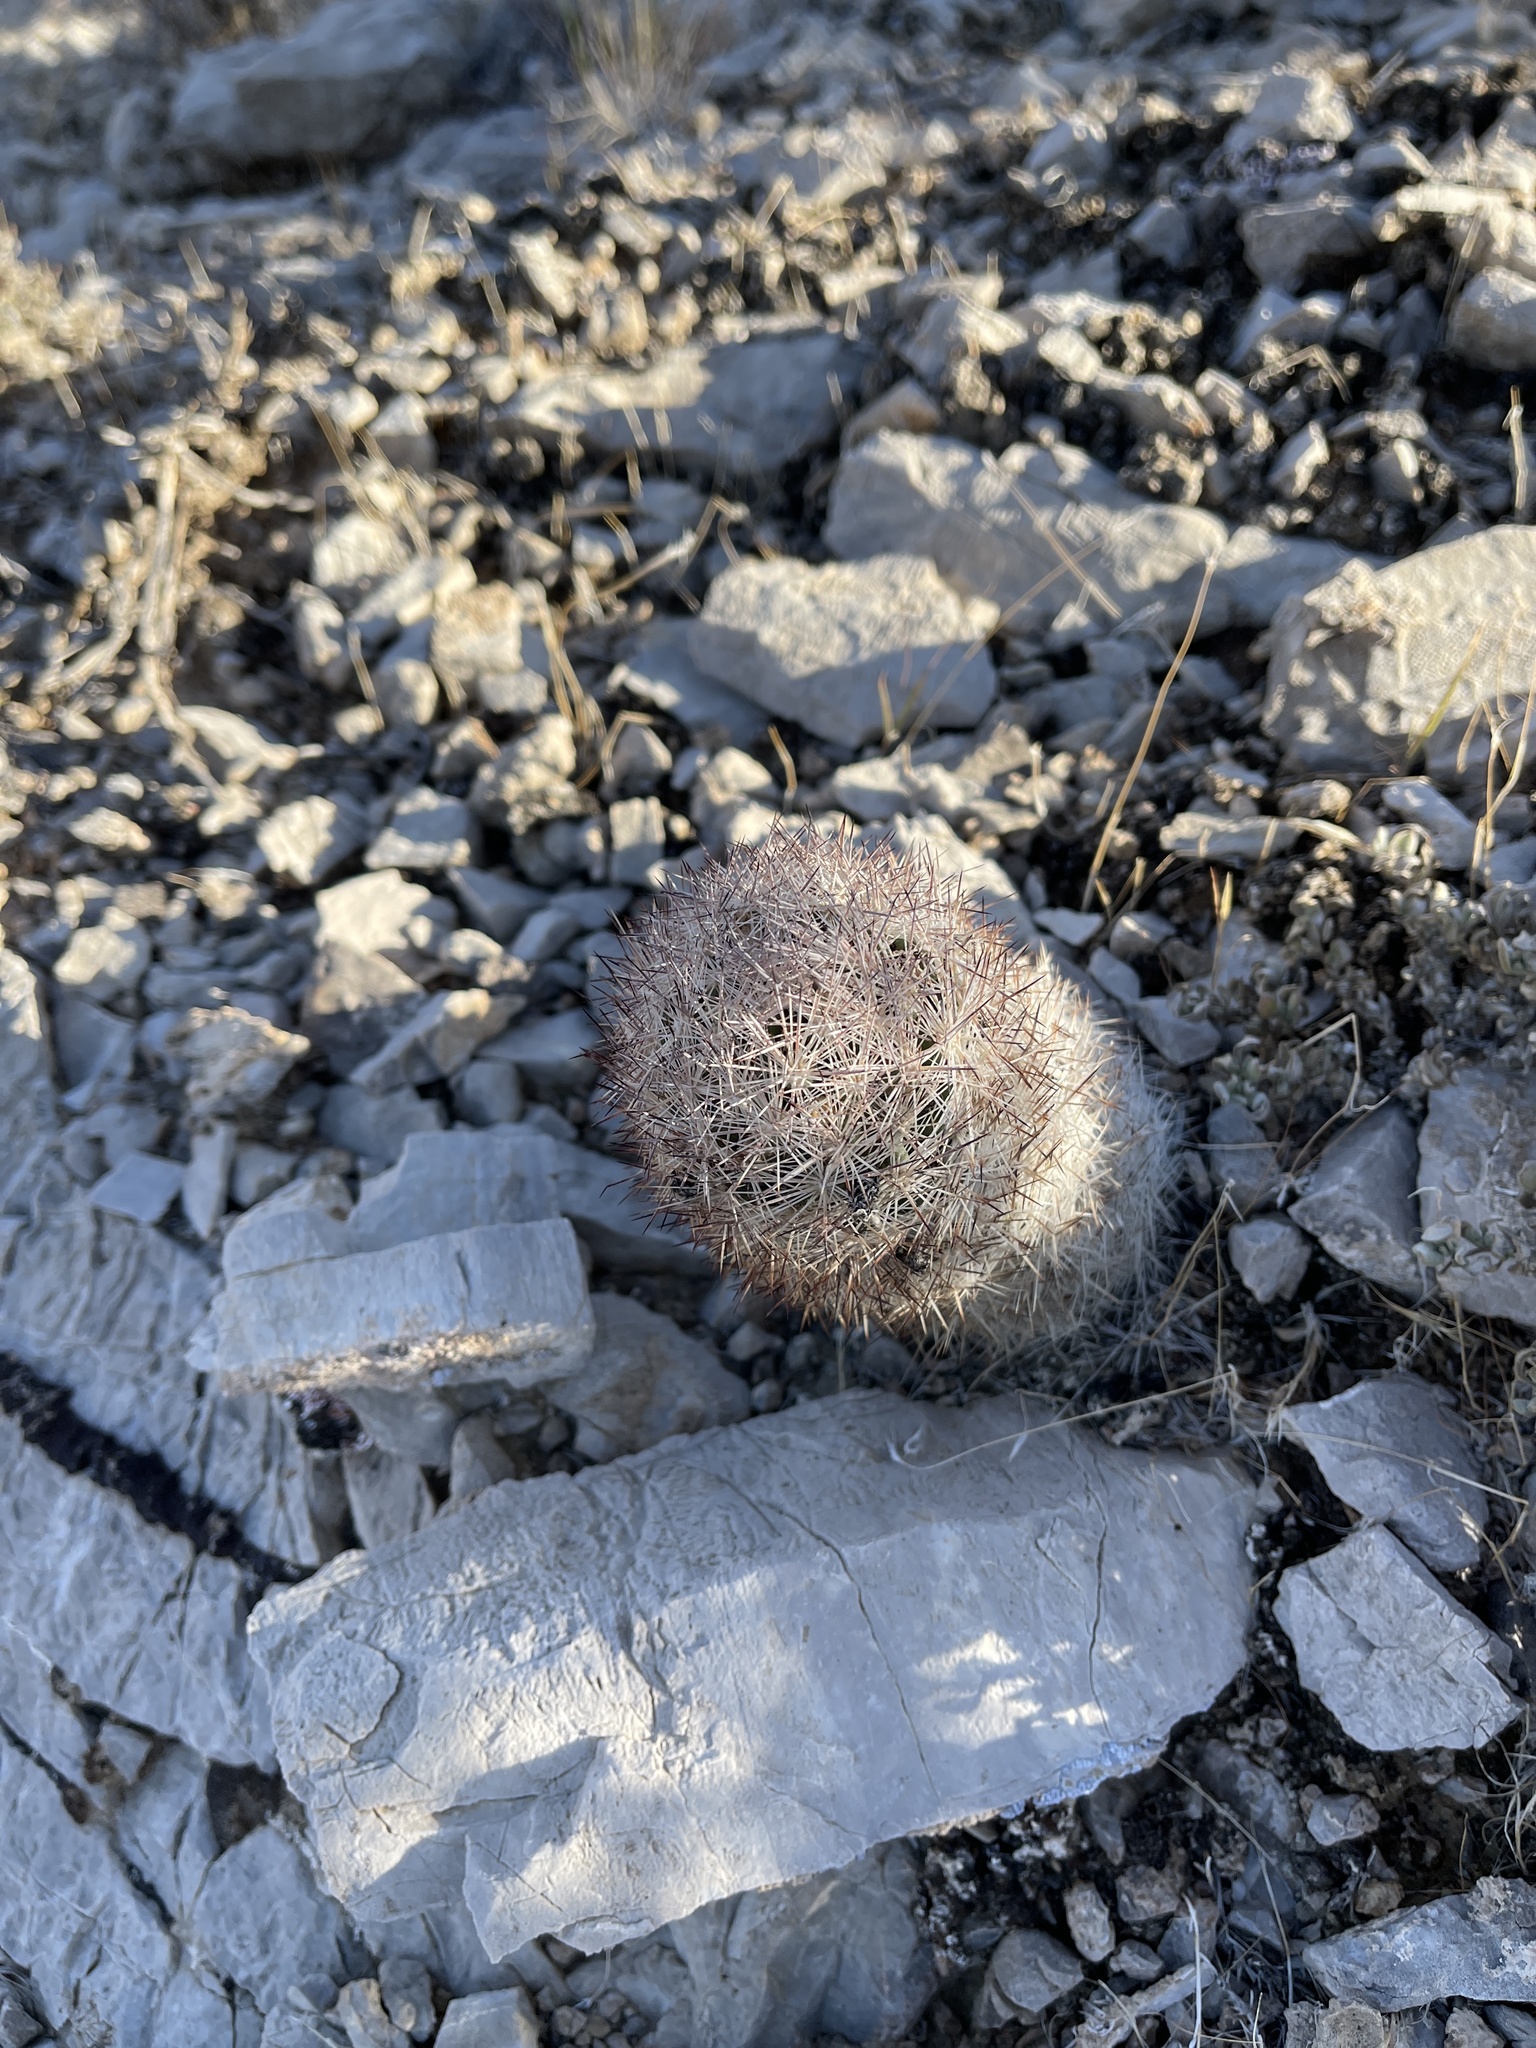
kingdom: Plantae
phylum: Tracheophyta
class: Magnoliopsida
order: Caryophyllales
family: Cactaceae
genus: Pelecyphora
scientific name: Pelecyphora dasyacantha
